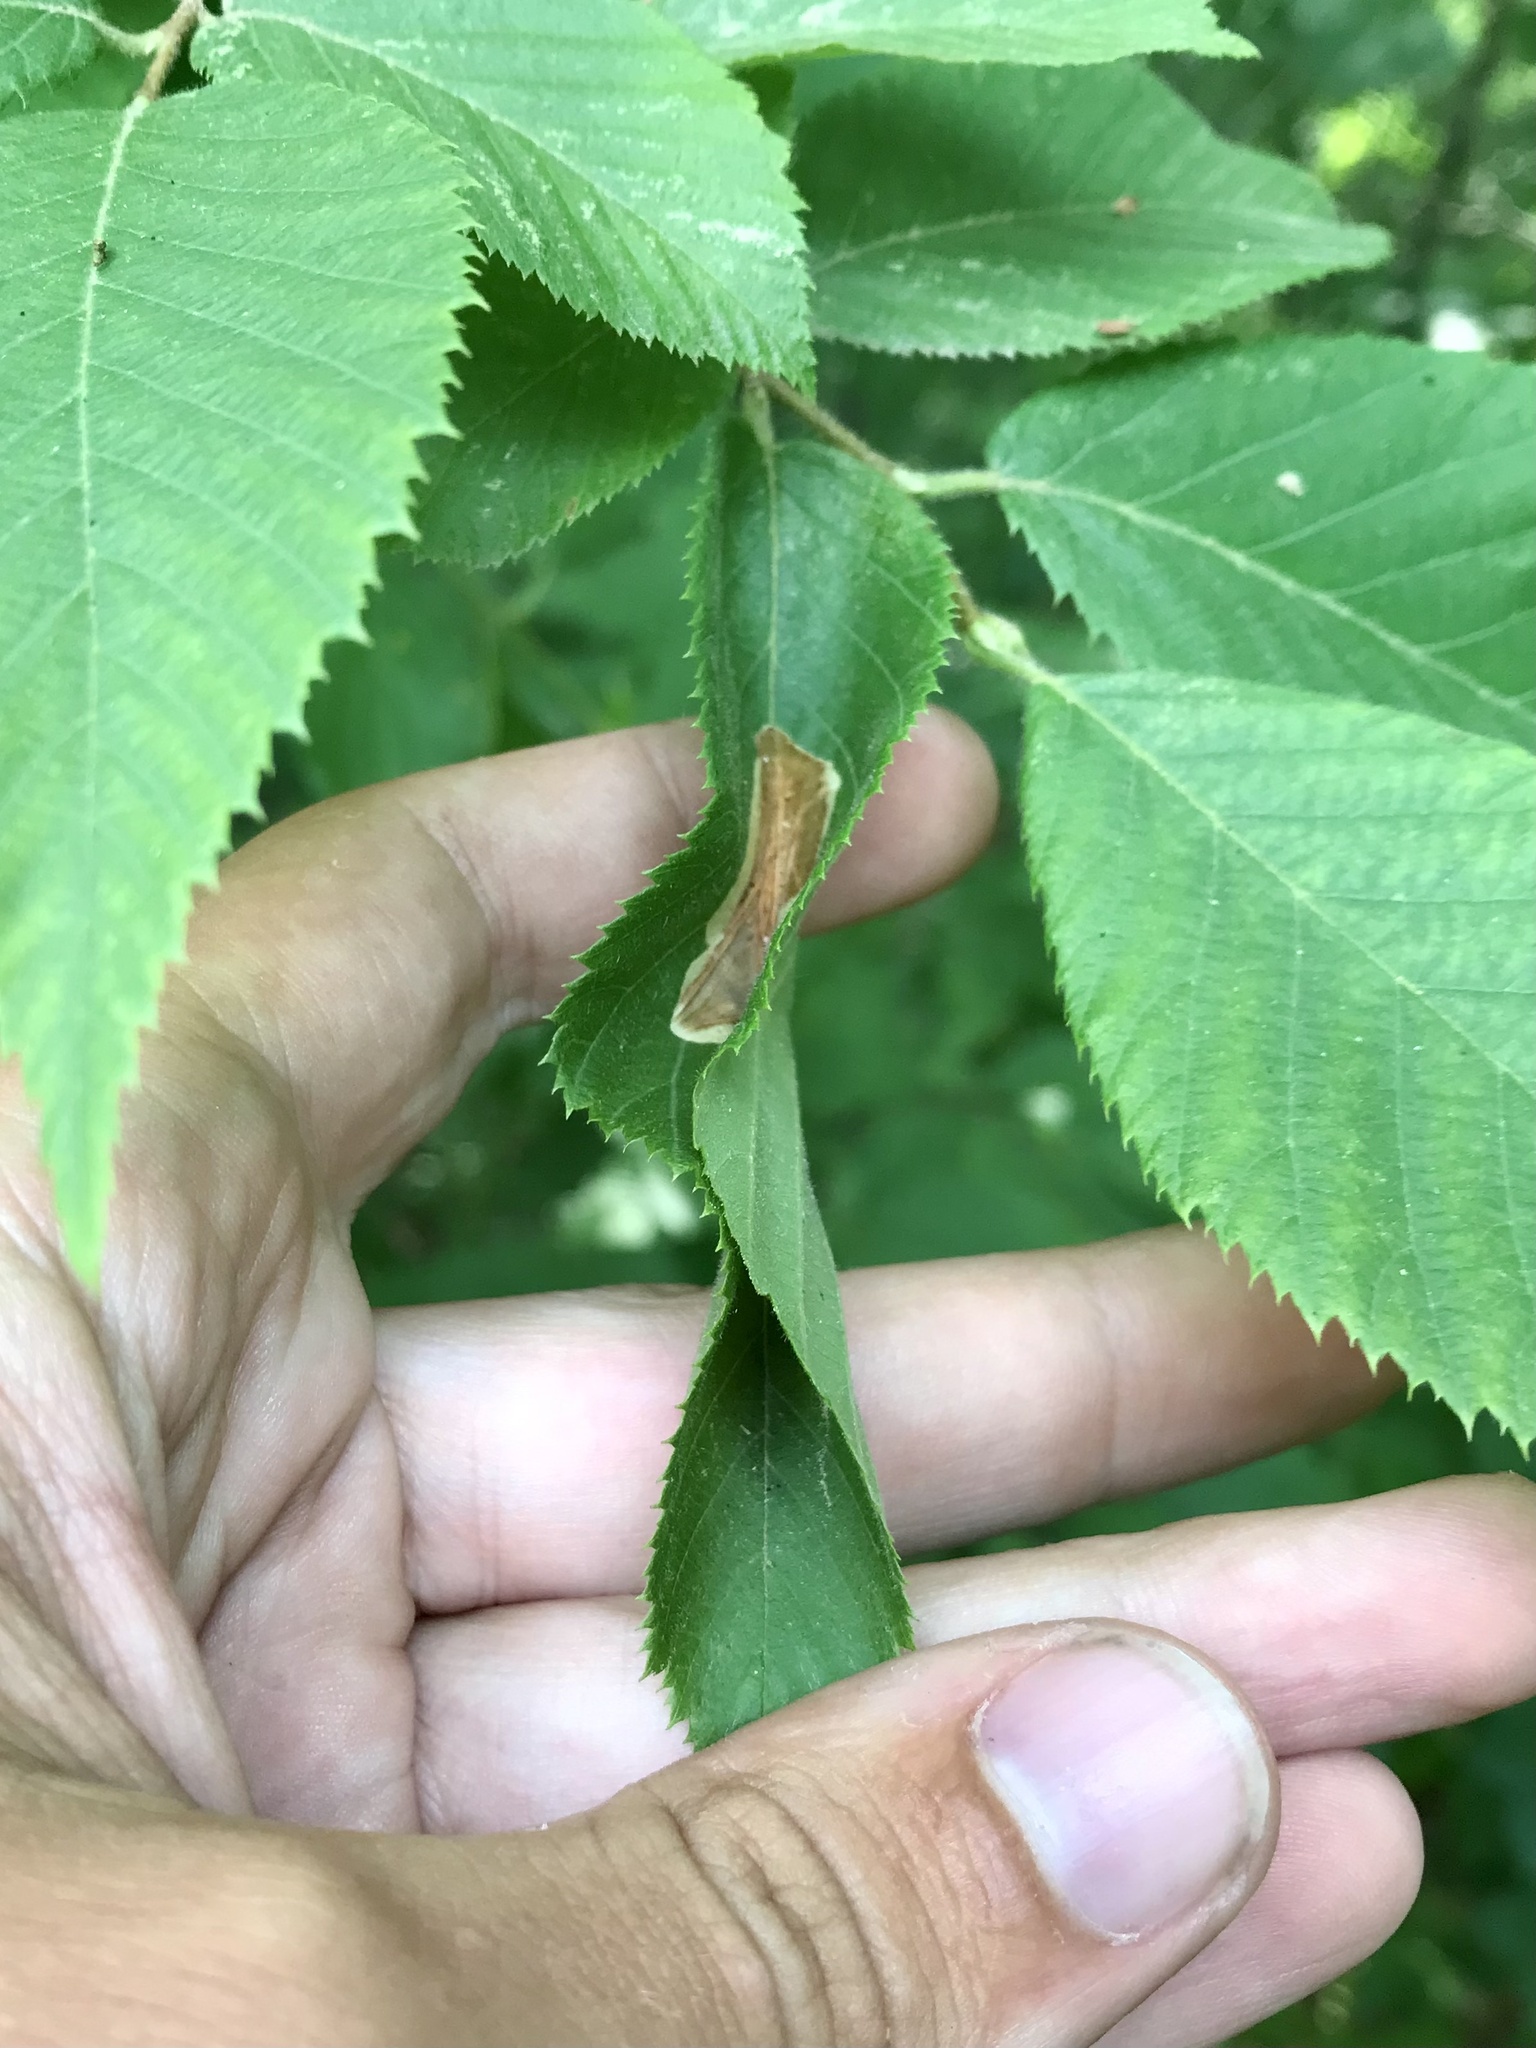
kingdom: Animalia
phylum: Arthropoda
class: Insecta
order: Lepidoptera
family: Gracillariidae
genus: Cameraria
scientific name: Cameraria lentella
